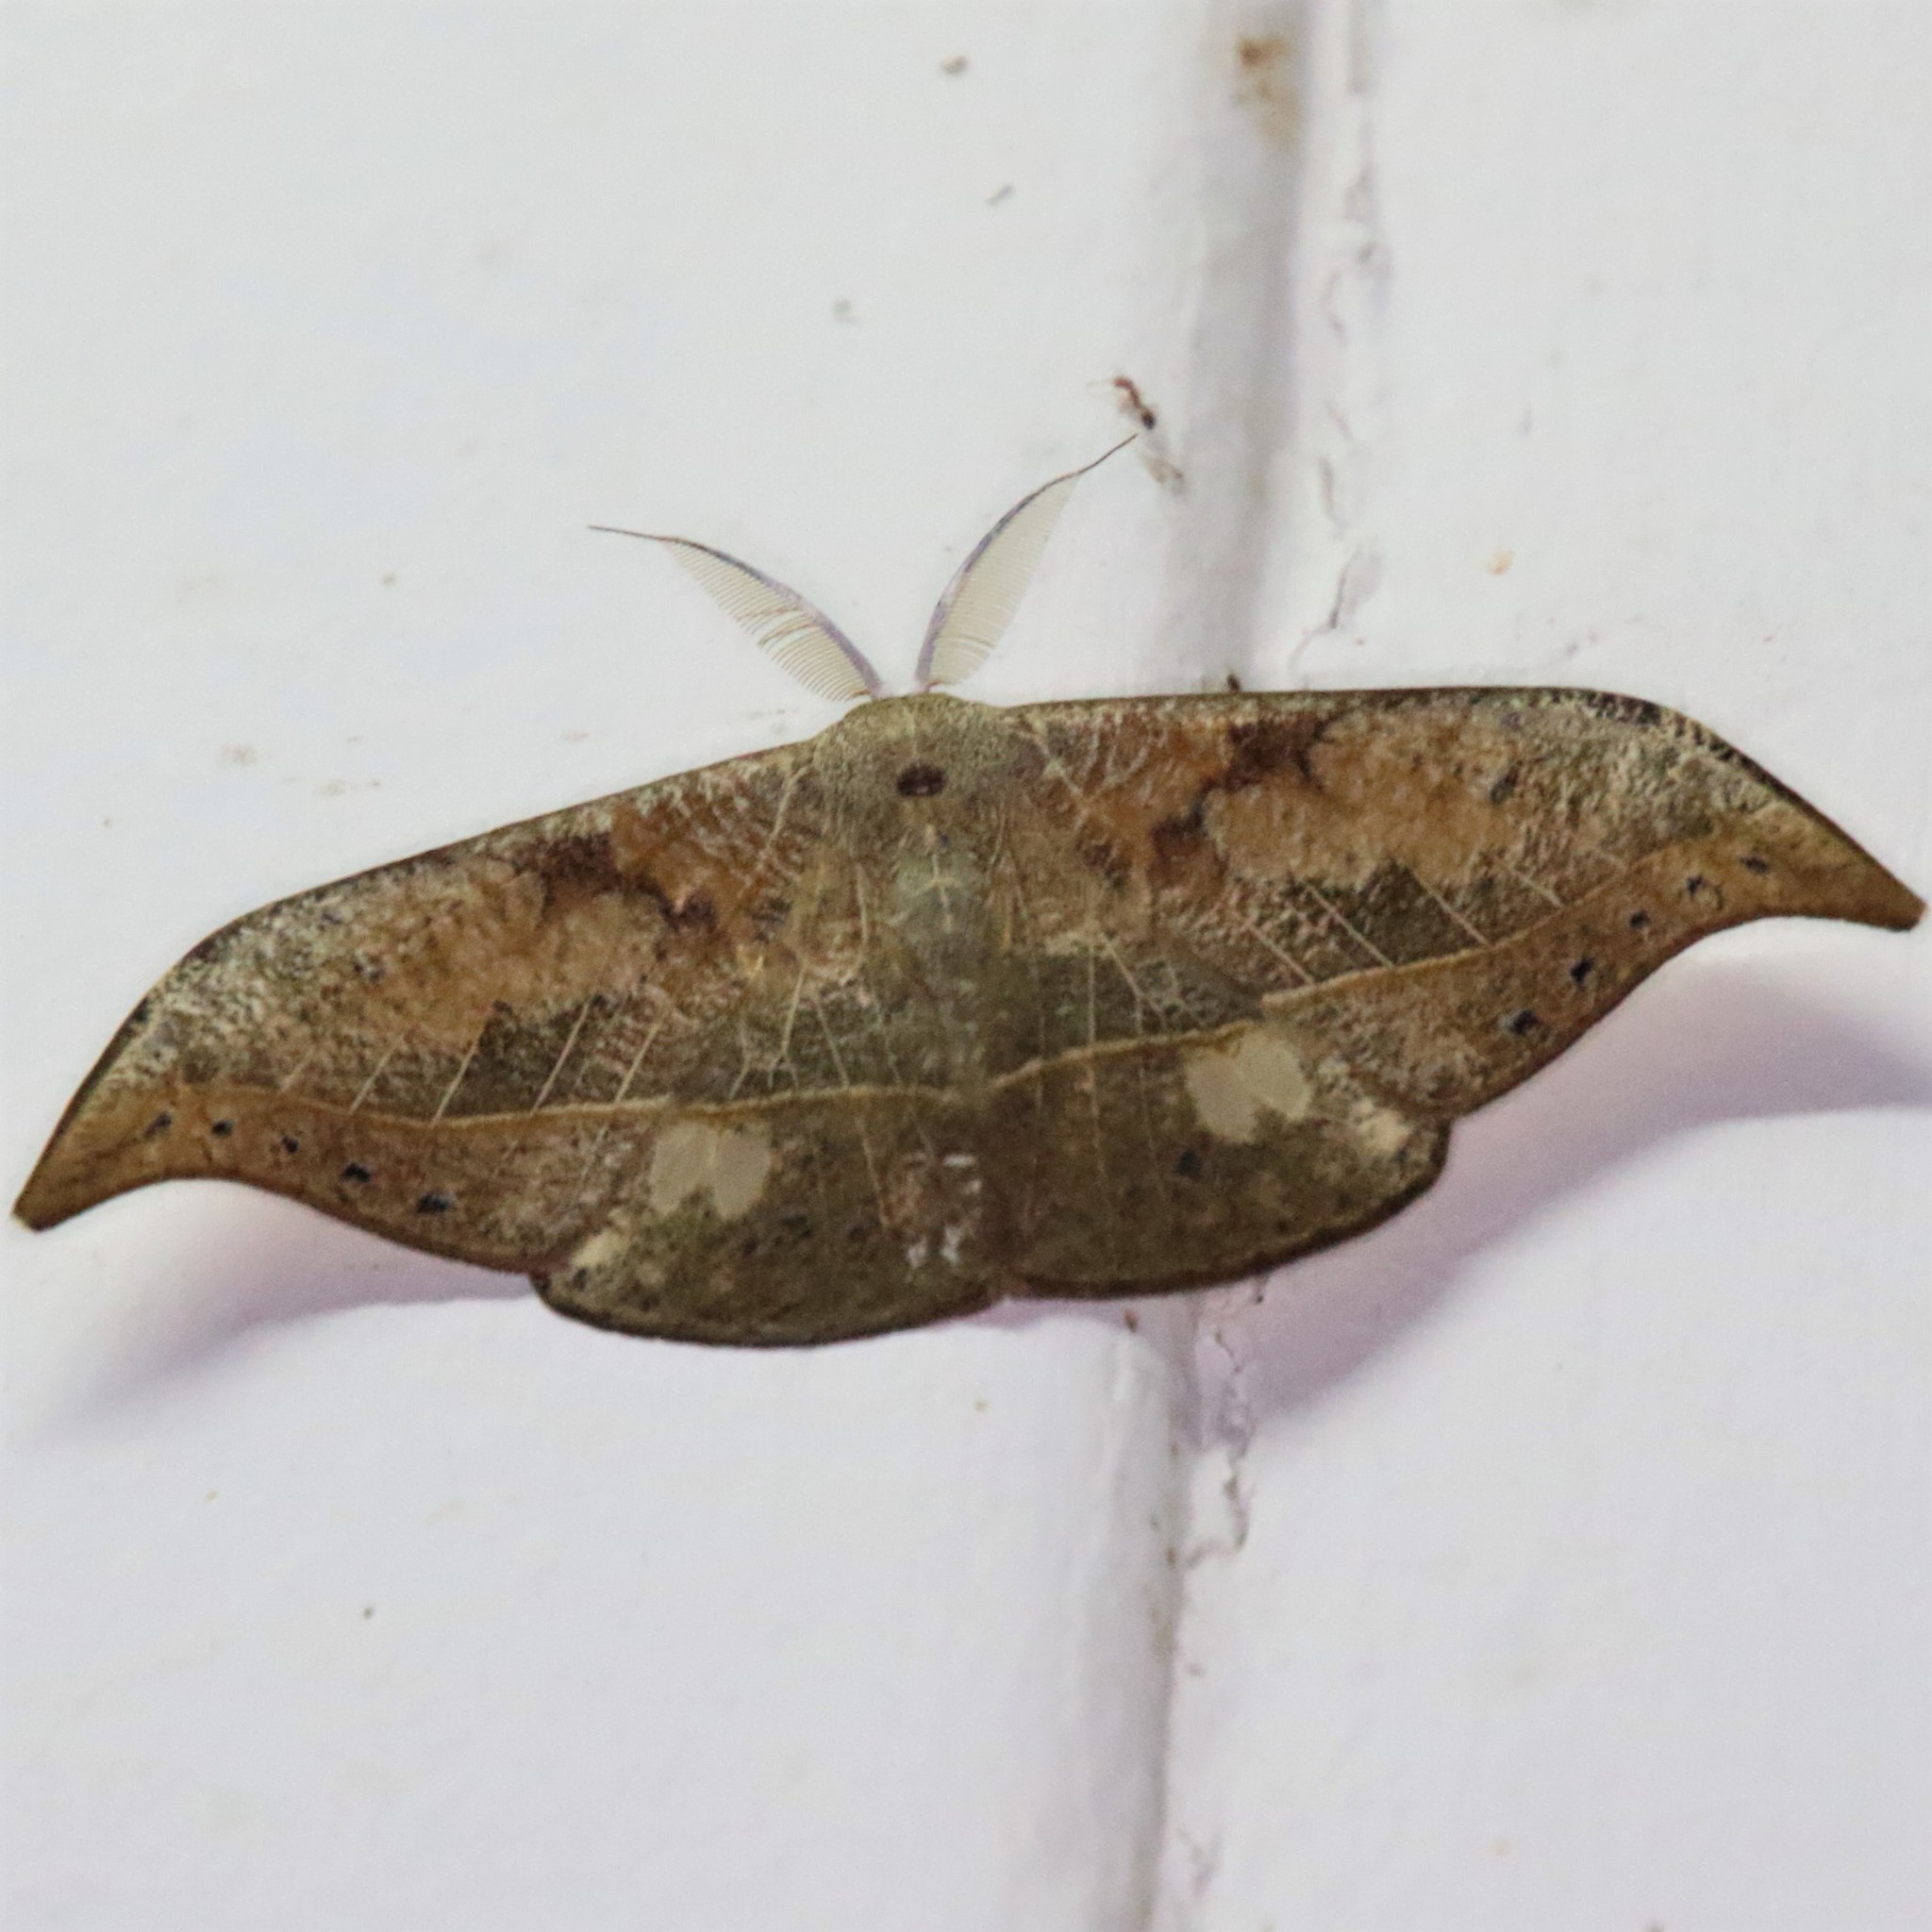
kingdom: Animalia
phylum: Arthropoda
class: Insecta
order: Lepidoptera
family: Drepanidae
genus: Canucha
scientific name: Canucha specularis
